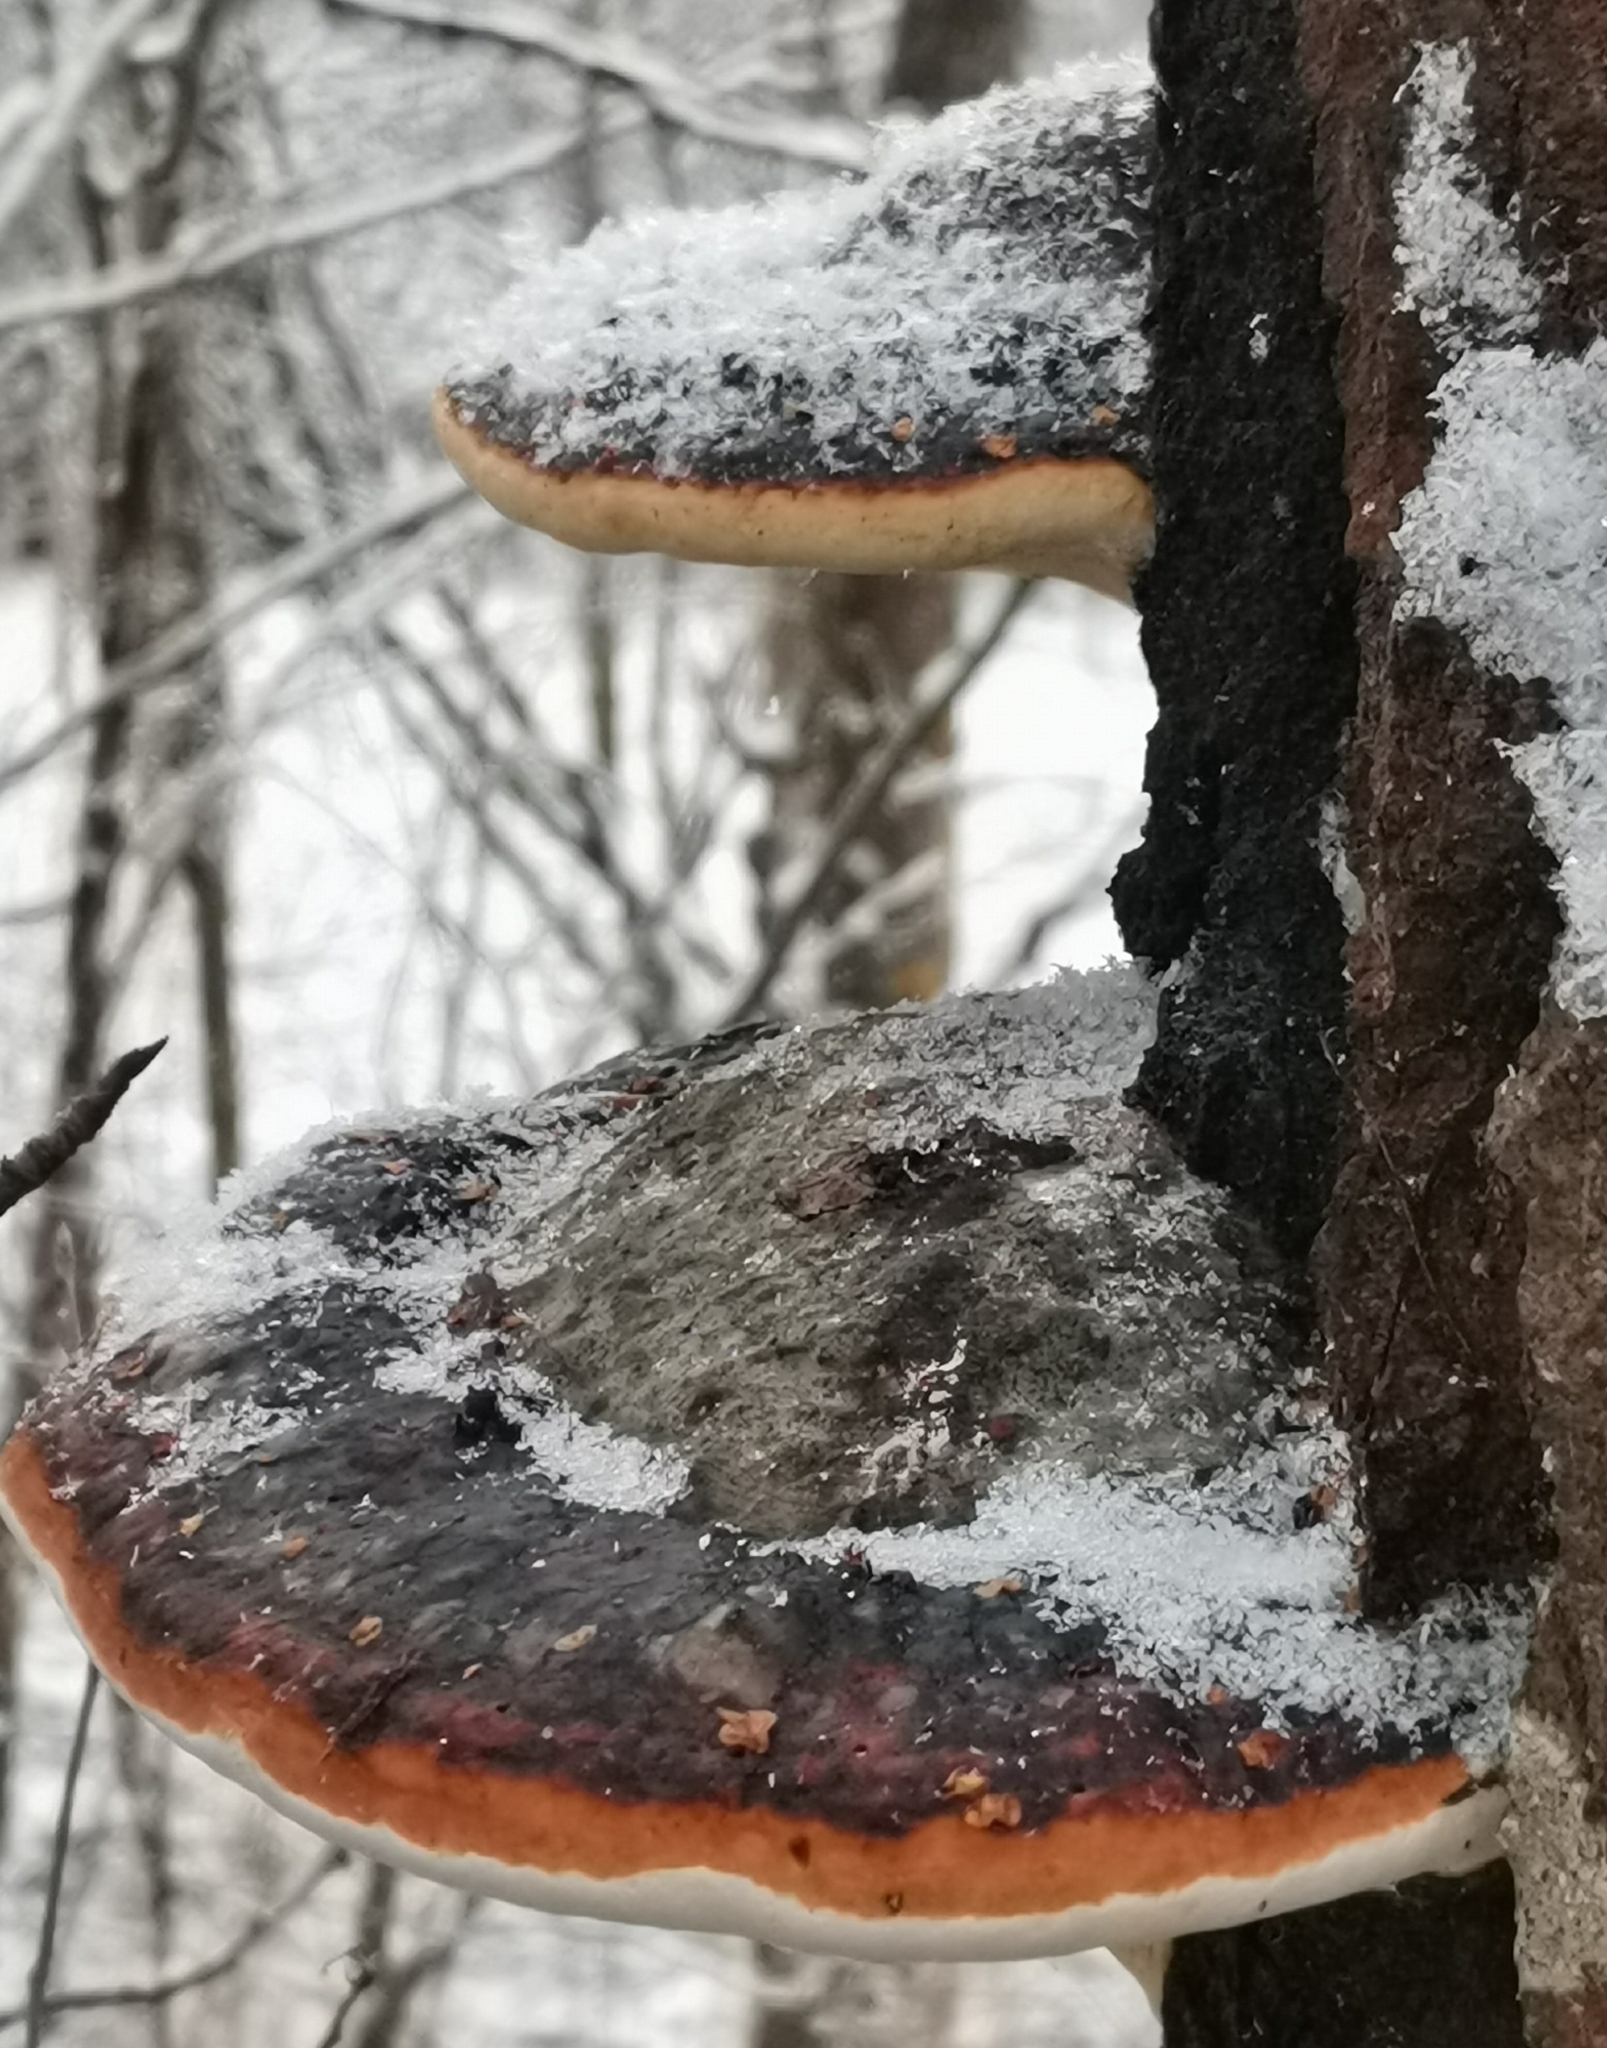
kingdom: Fungi
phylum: Basidiomycota
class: Agaricomycetes
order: Polyporales
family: Fomitopsidaceae
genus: Fomitopsis
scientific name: Fomitopsis pinicola
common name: Red-belted bracket
